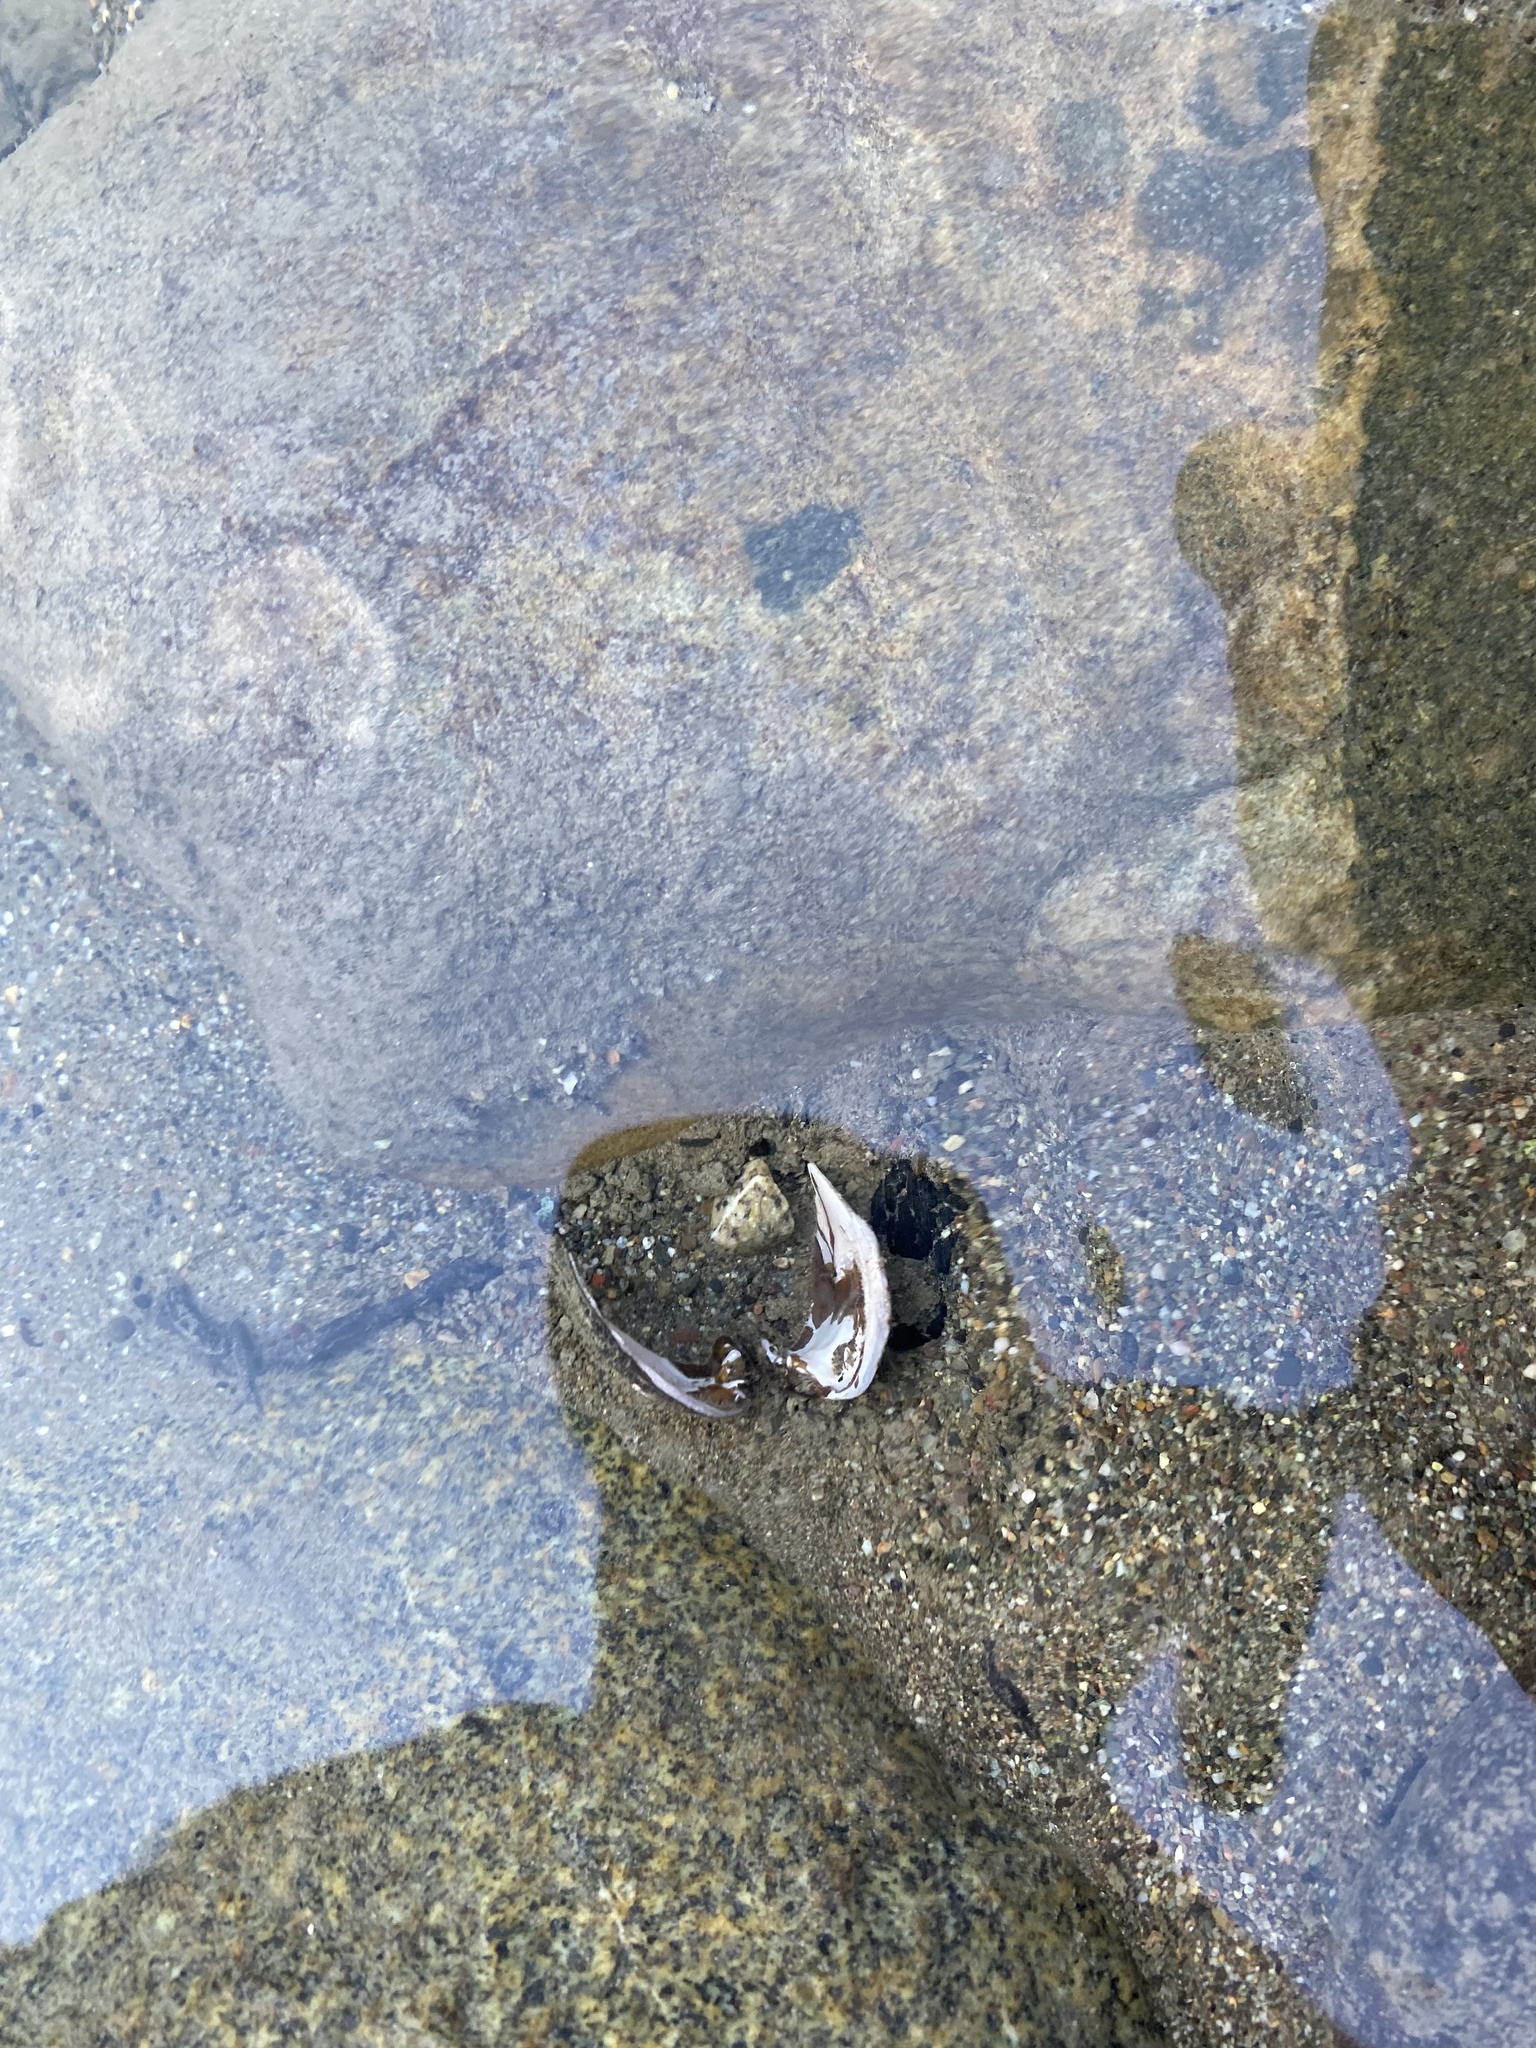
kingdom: Animalia
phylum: Mollusca
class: Bivalvia
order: Unionida
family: Margaritiferidae
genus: Margaritifera
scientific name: Margaritifera falcata
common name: Western pearlshell
